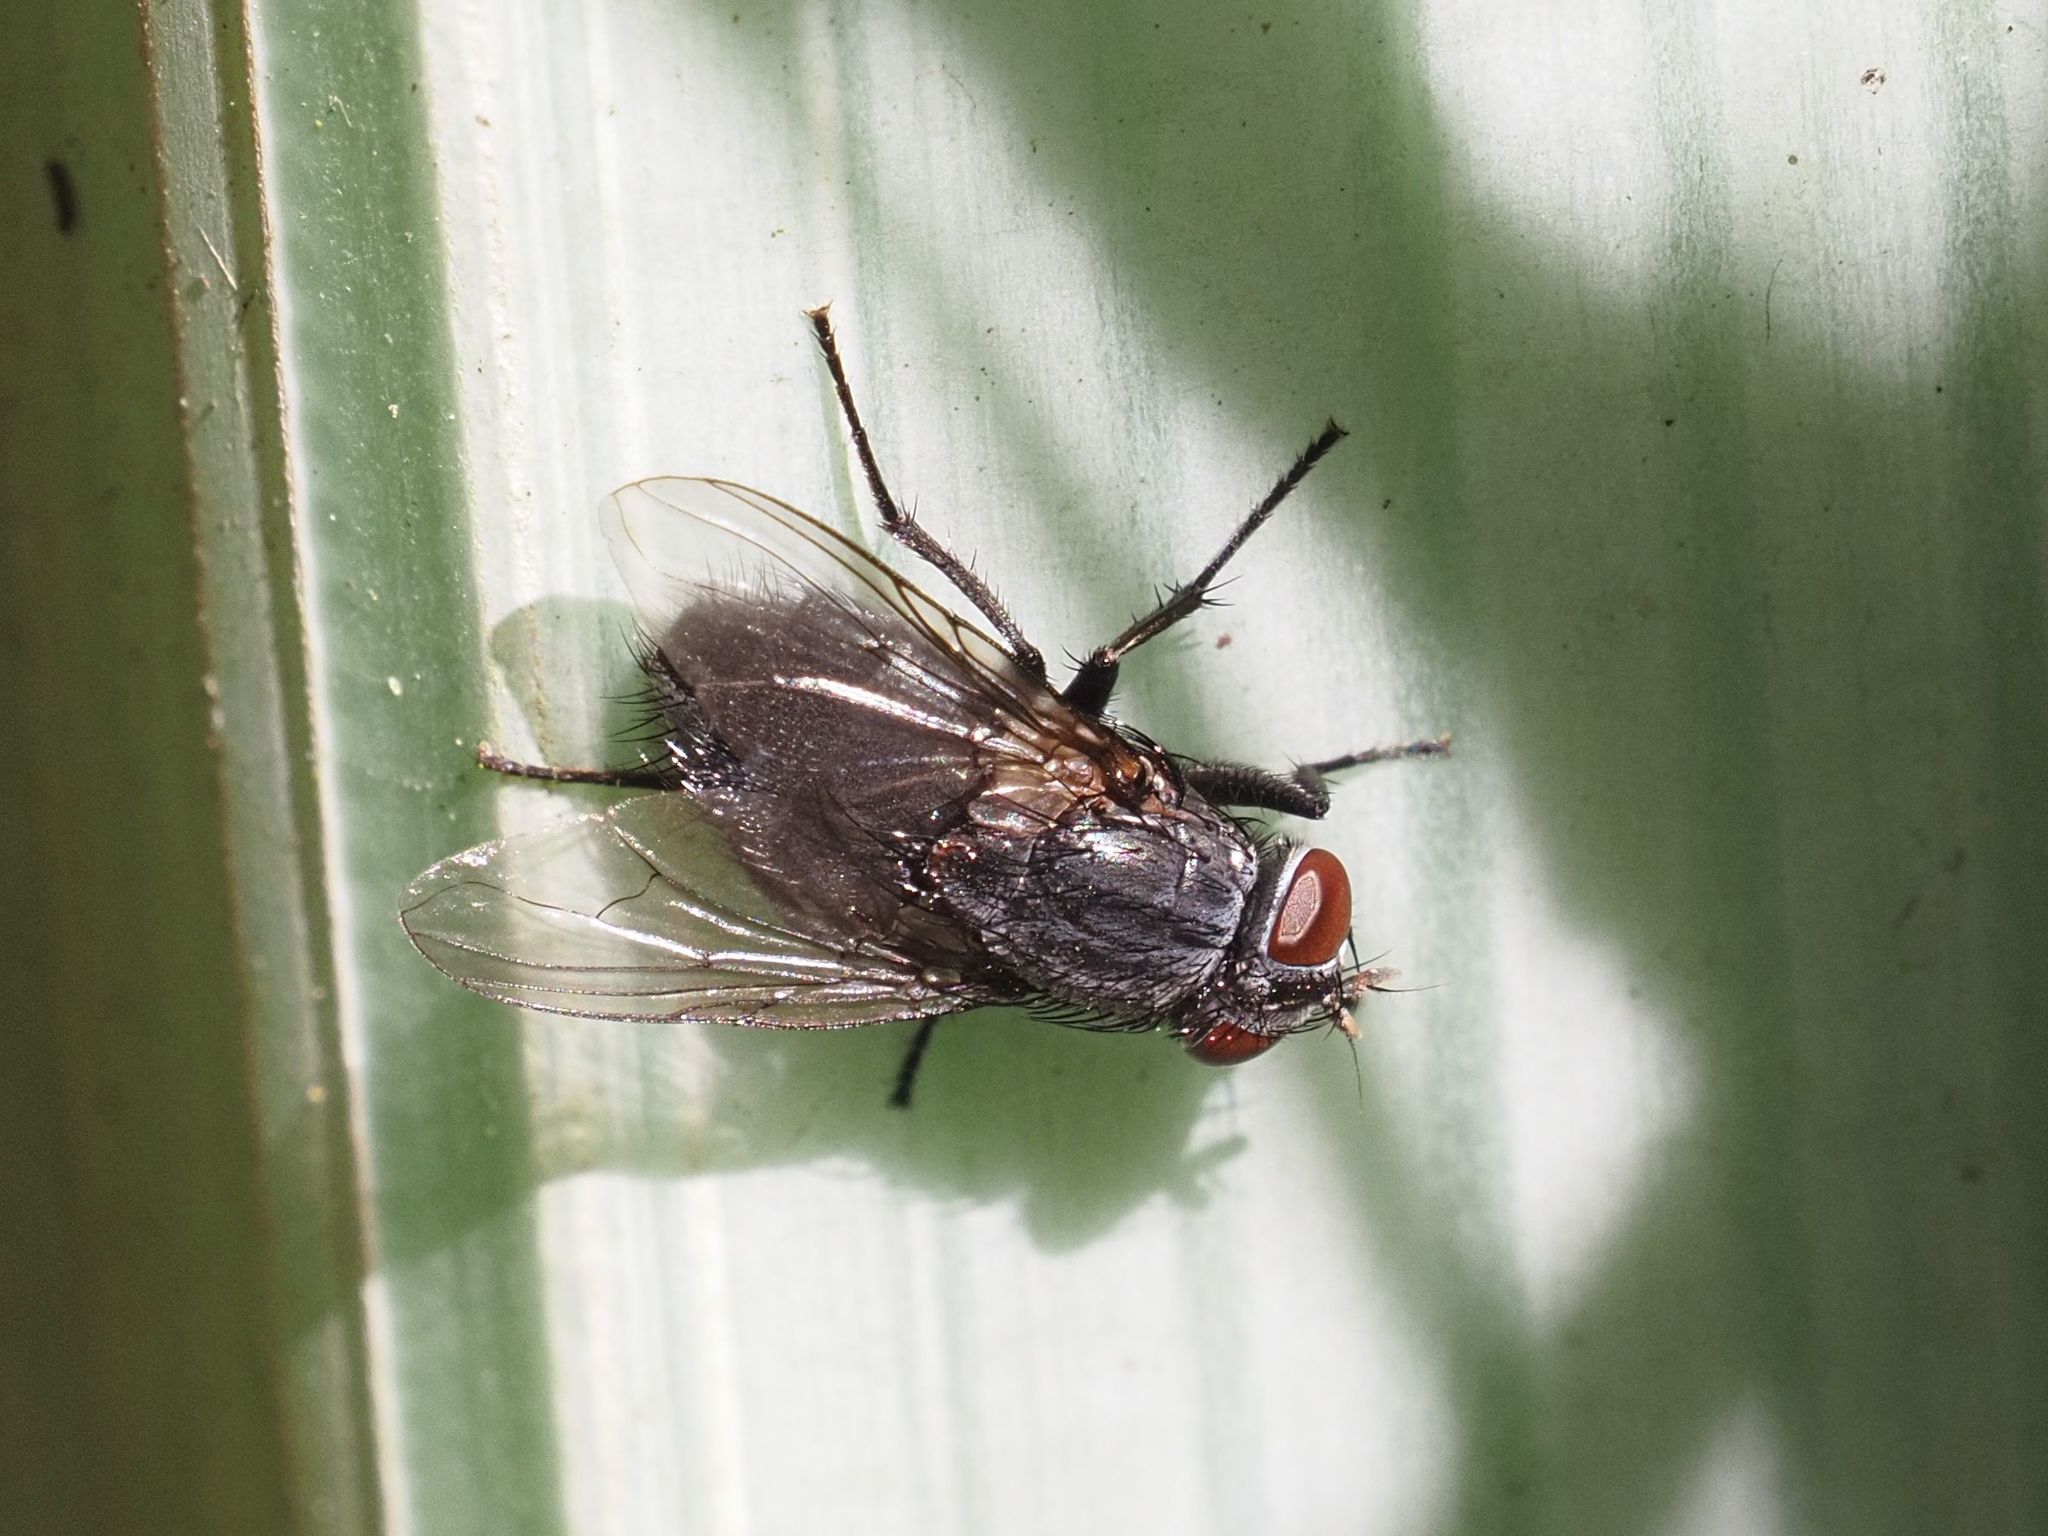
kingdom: Animalia
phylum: Arthropoda
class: Insecta
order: Diptera
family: Muscidae
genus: Muscina
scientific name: Muscina pascuorum
